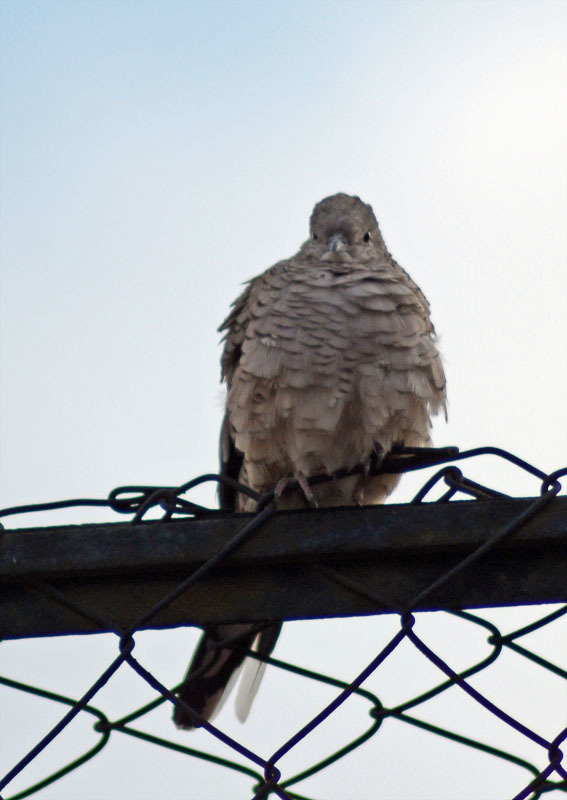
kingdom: Animalia
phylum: Chordata
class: Aves
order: Columbiformes
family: Columbidae
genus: Columbina
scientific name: Columbina inca
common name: Inca dove
